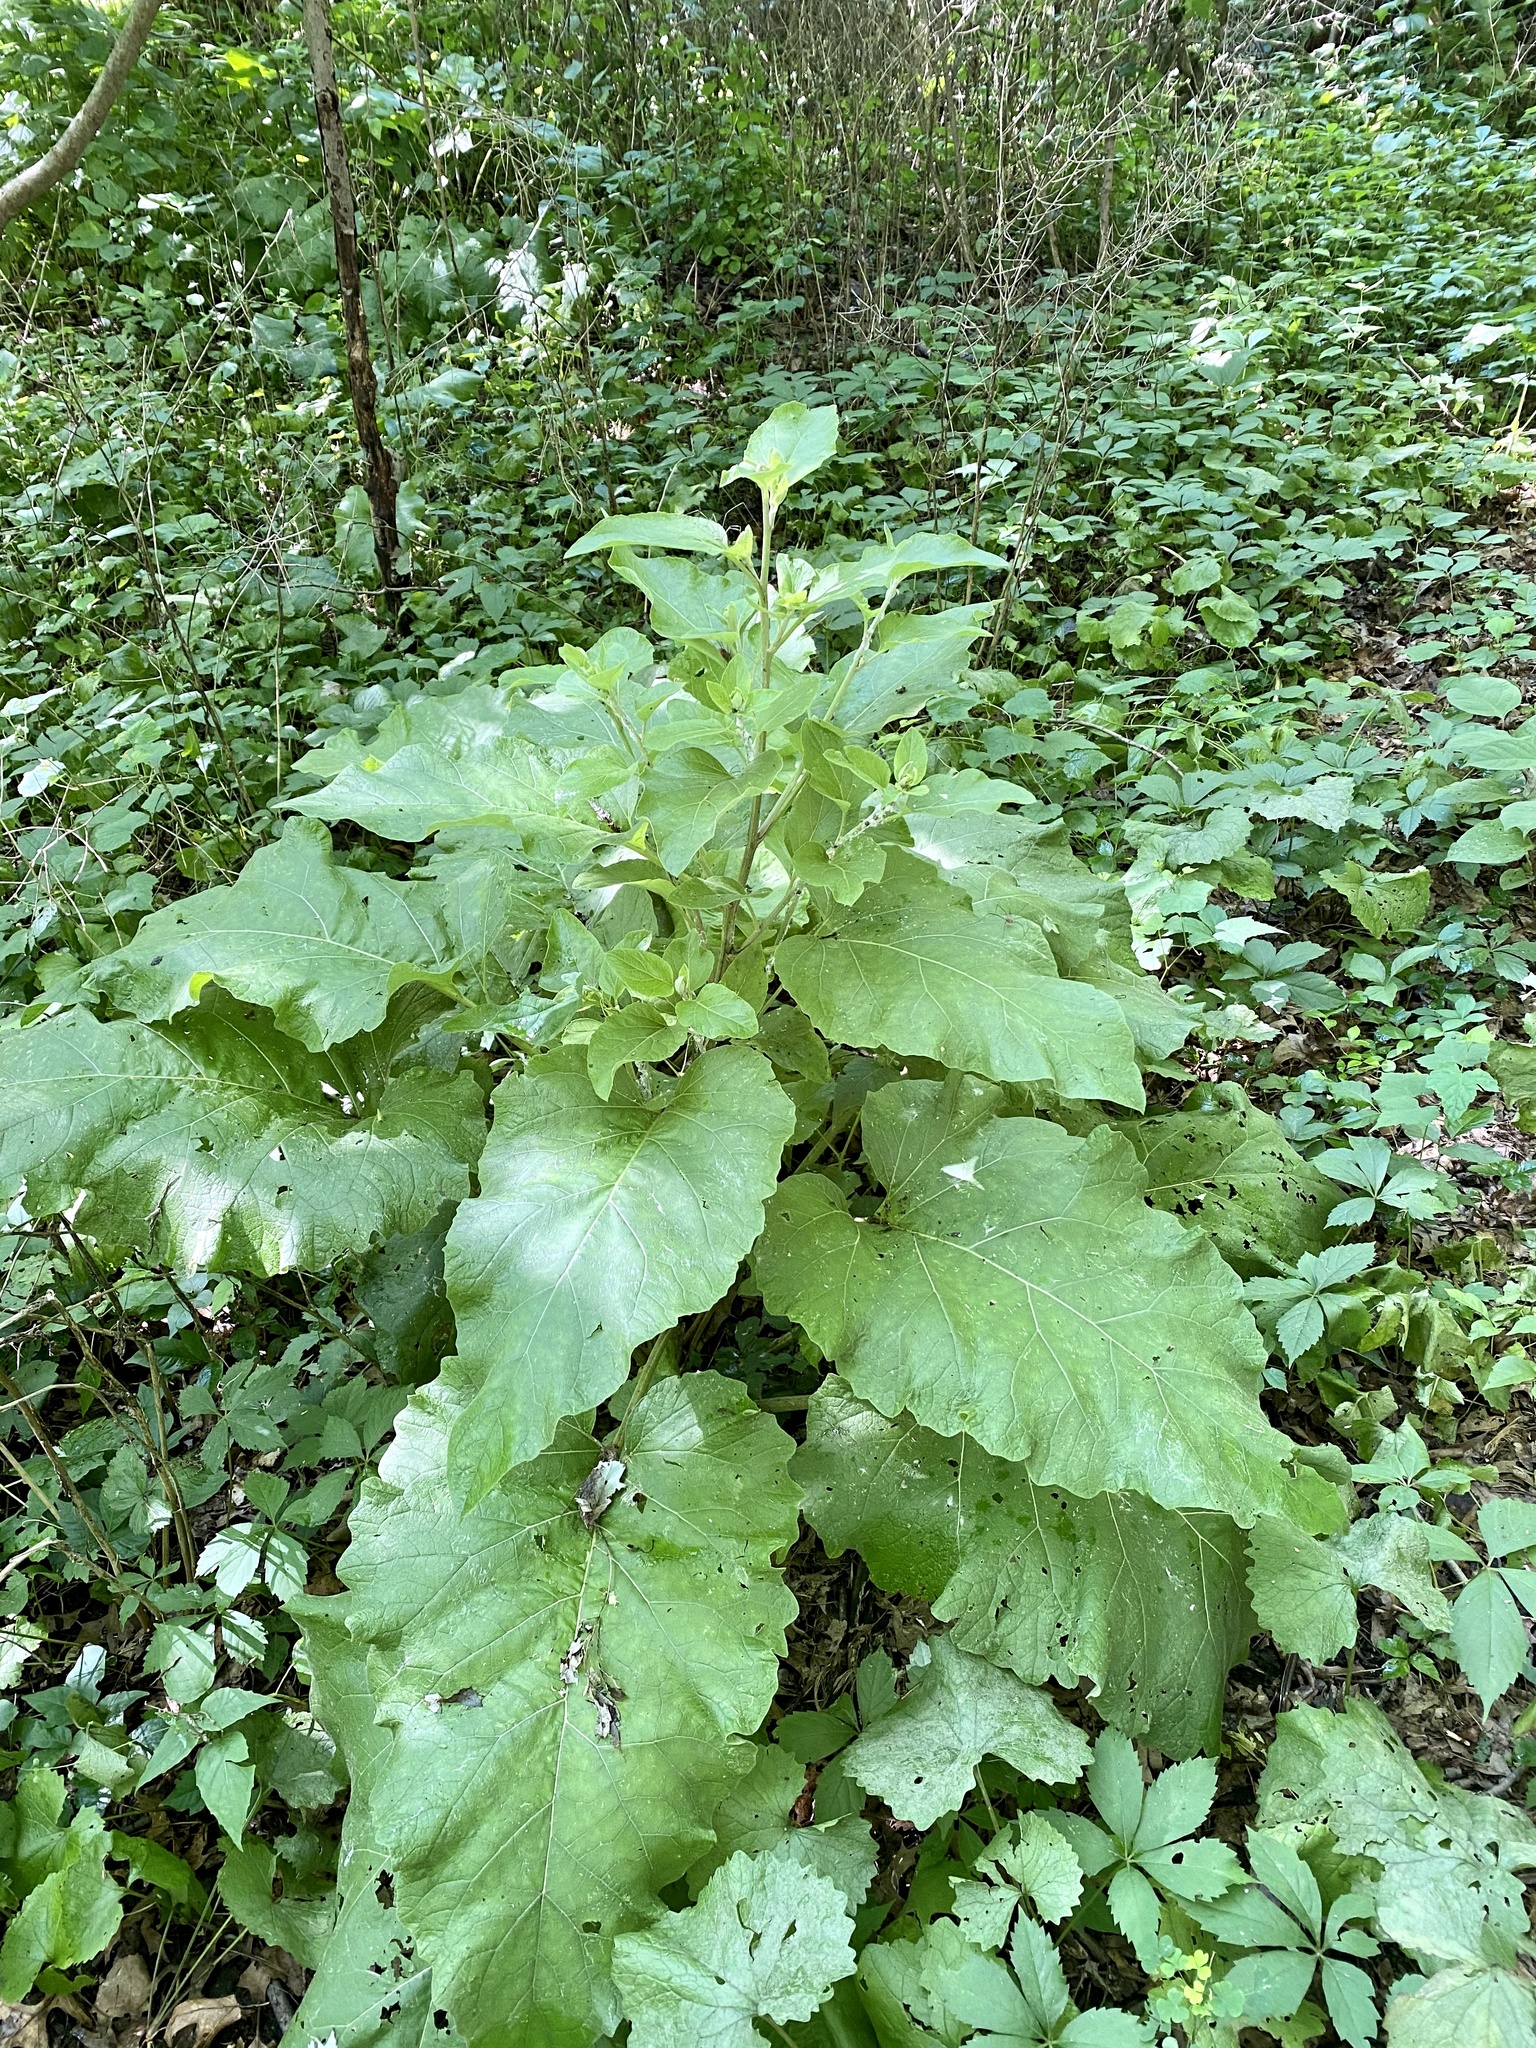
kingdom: Plantae
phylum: Tracheophyta
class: Magnoliopsida
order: Asterales
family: Asteraceae
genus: Arctium
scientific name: Arctium minus
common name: Lesser burdock
